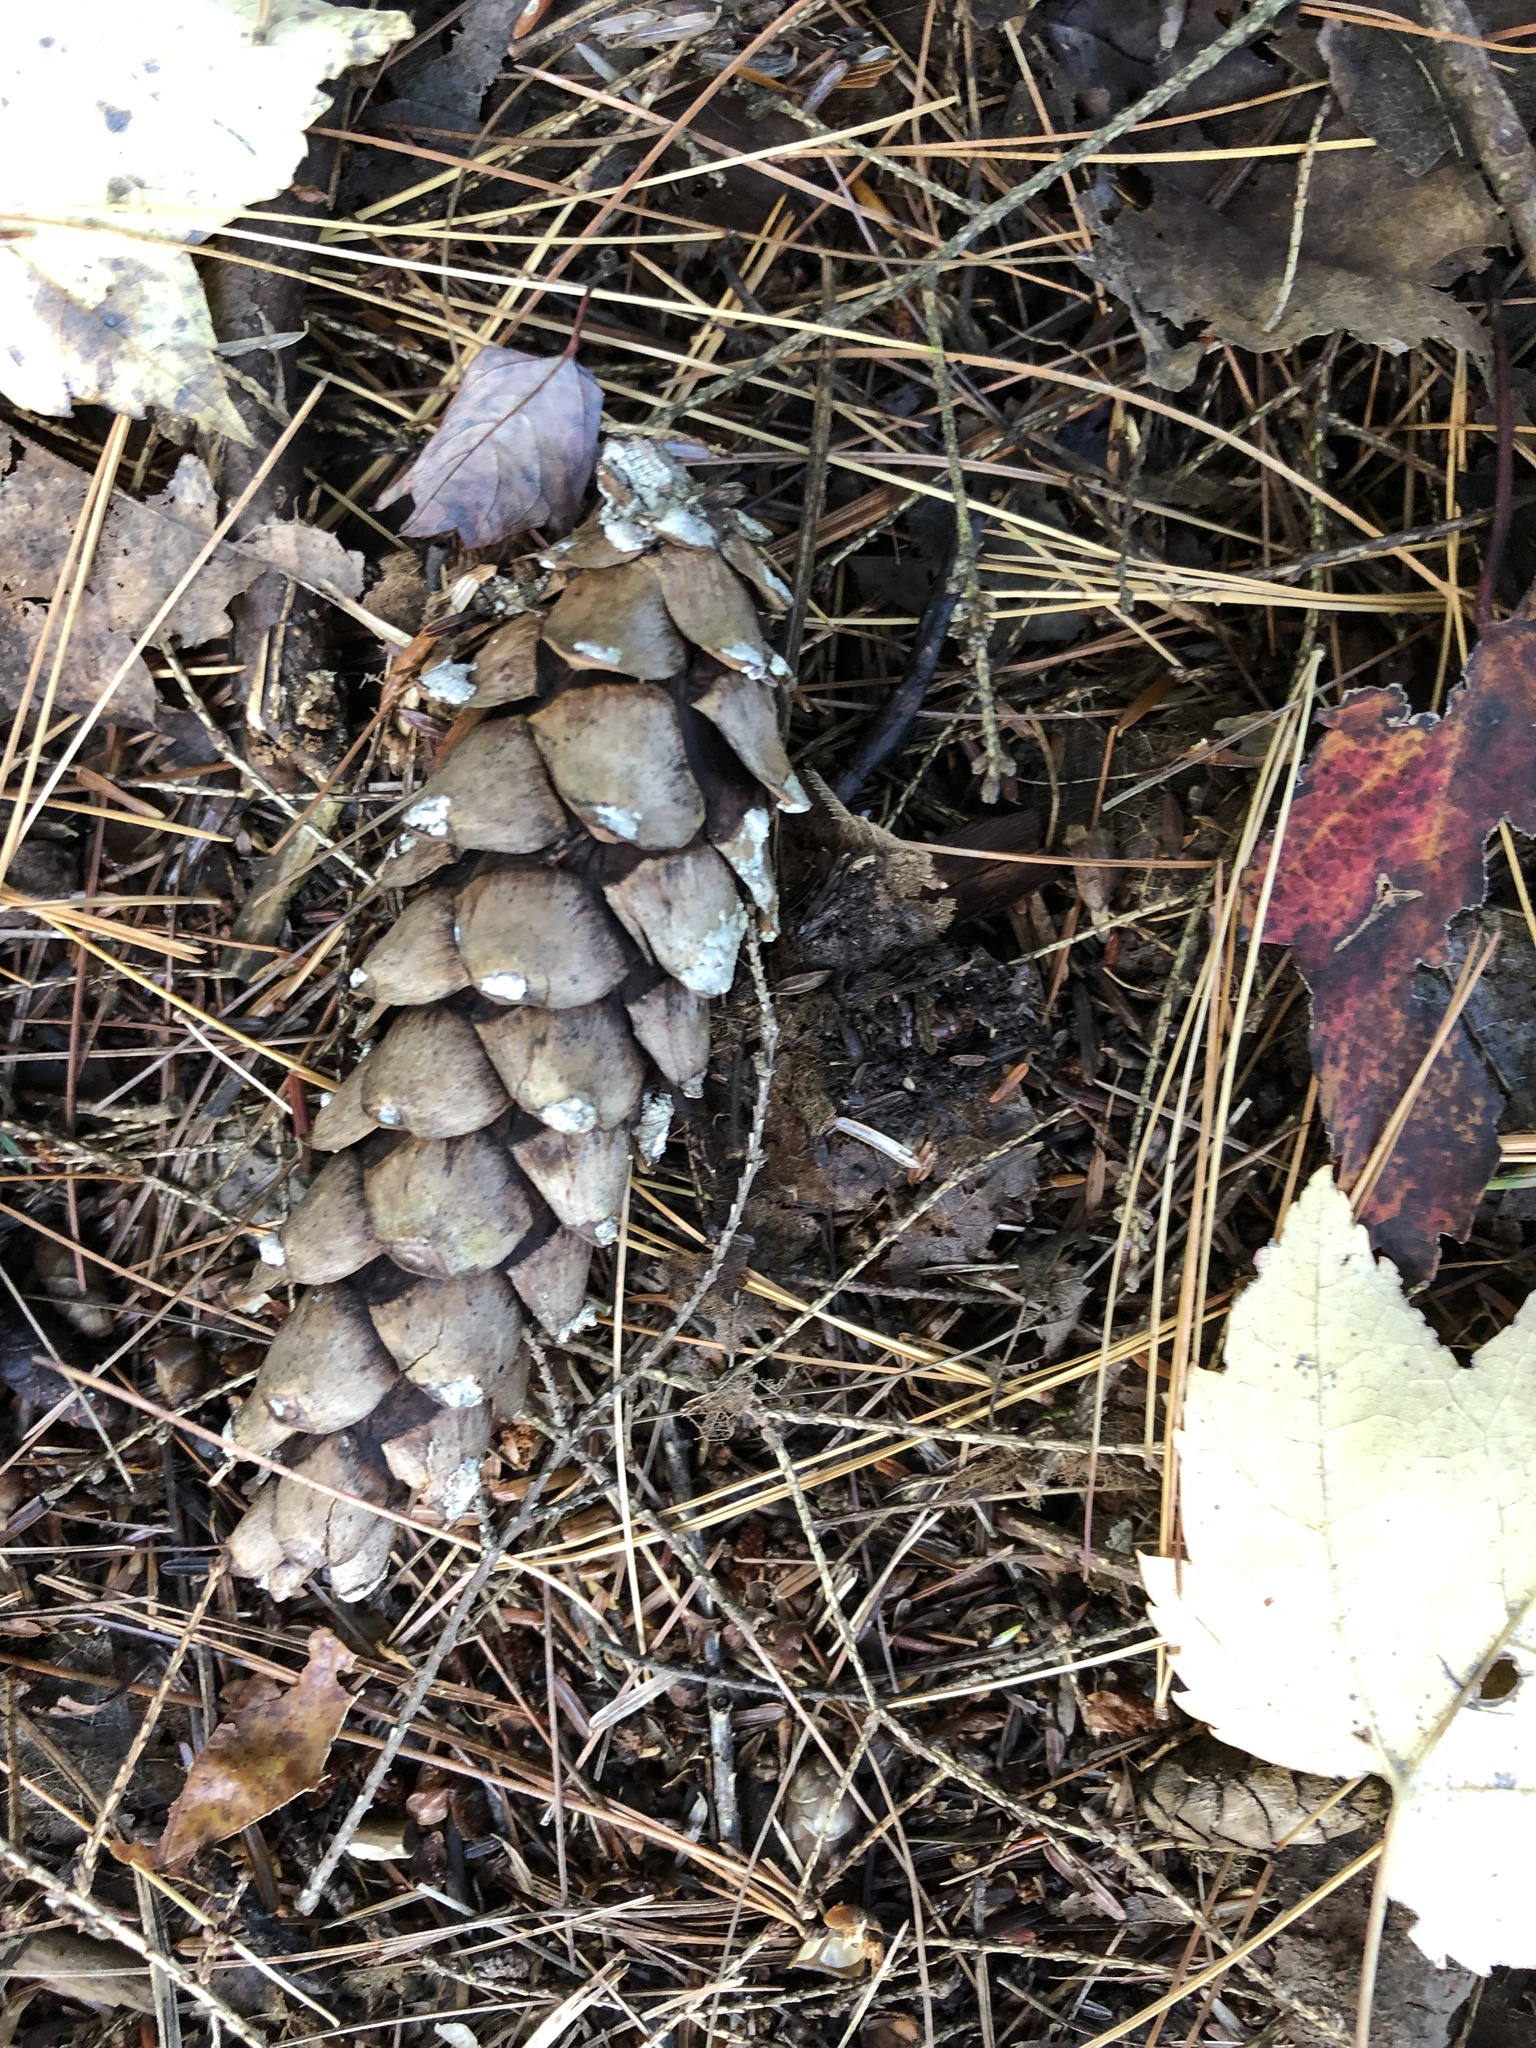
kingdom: Plantae
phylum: Tracheophyta
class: Pinopsida
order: Pinales
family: Pinaceae
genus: Pinus
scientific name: Pinus strobus
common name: Weymouth pine
